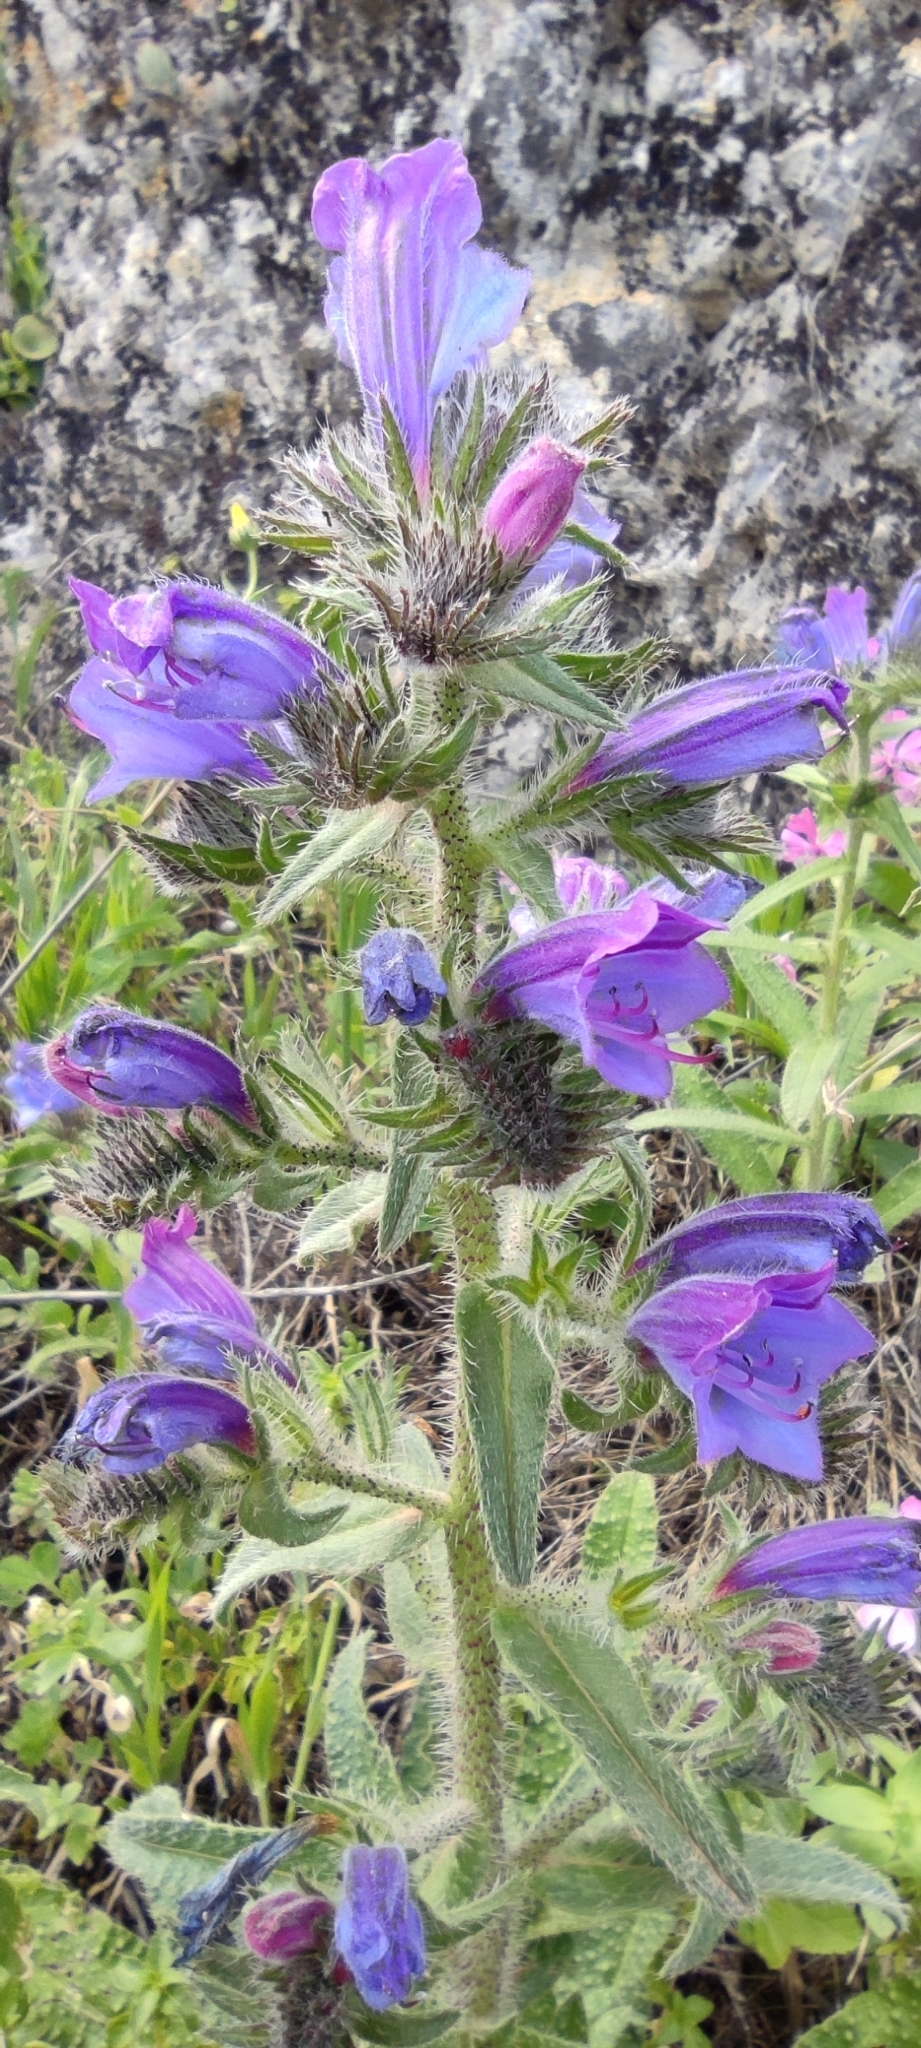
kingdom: Plantae
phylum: Tracheophyta
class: Magnoliopsida
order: Boraginales
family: Boraginaceae
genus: Echium
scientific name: Echium creticum
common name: Cretan viper's bugloss
